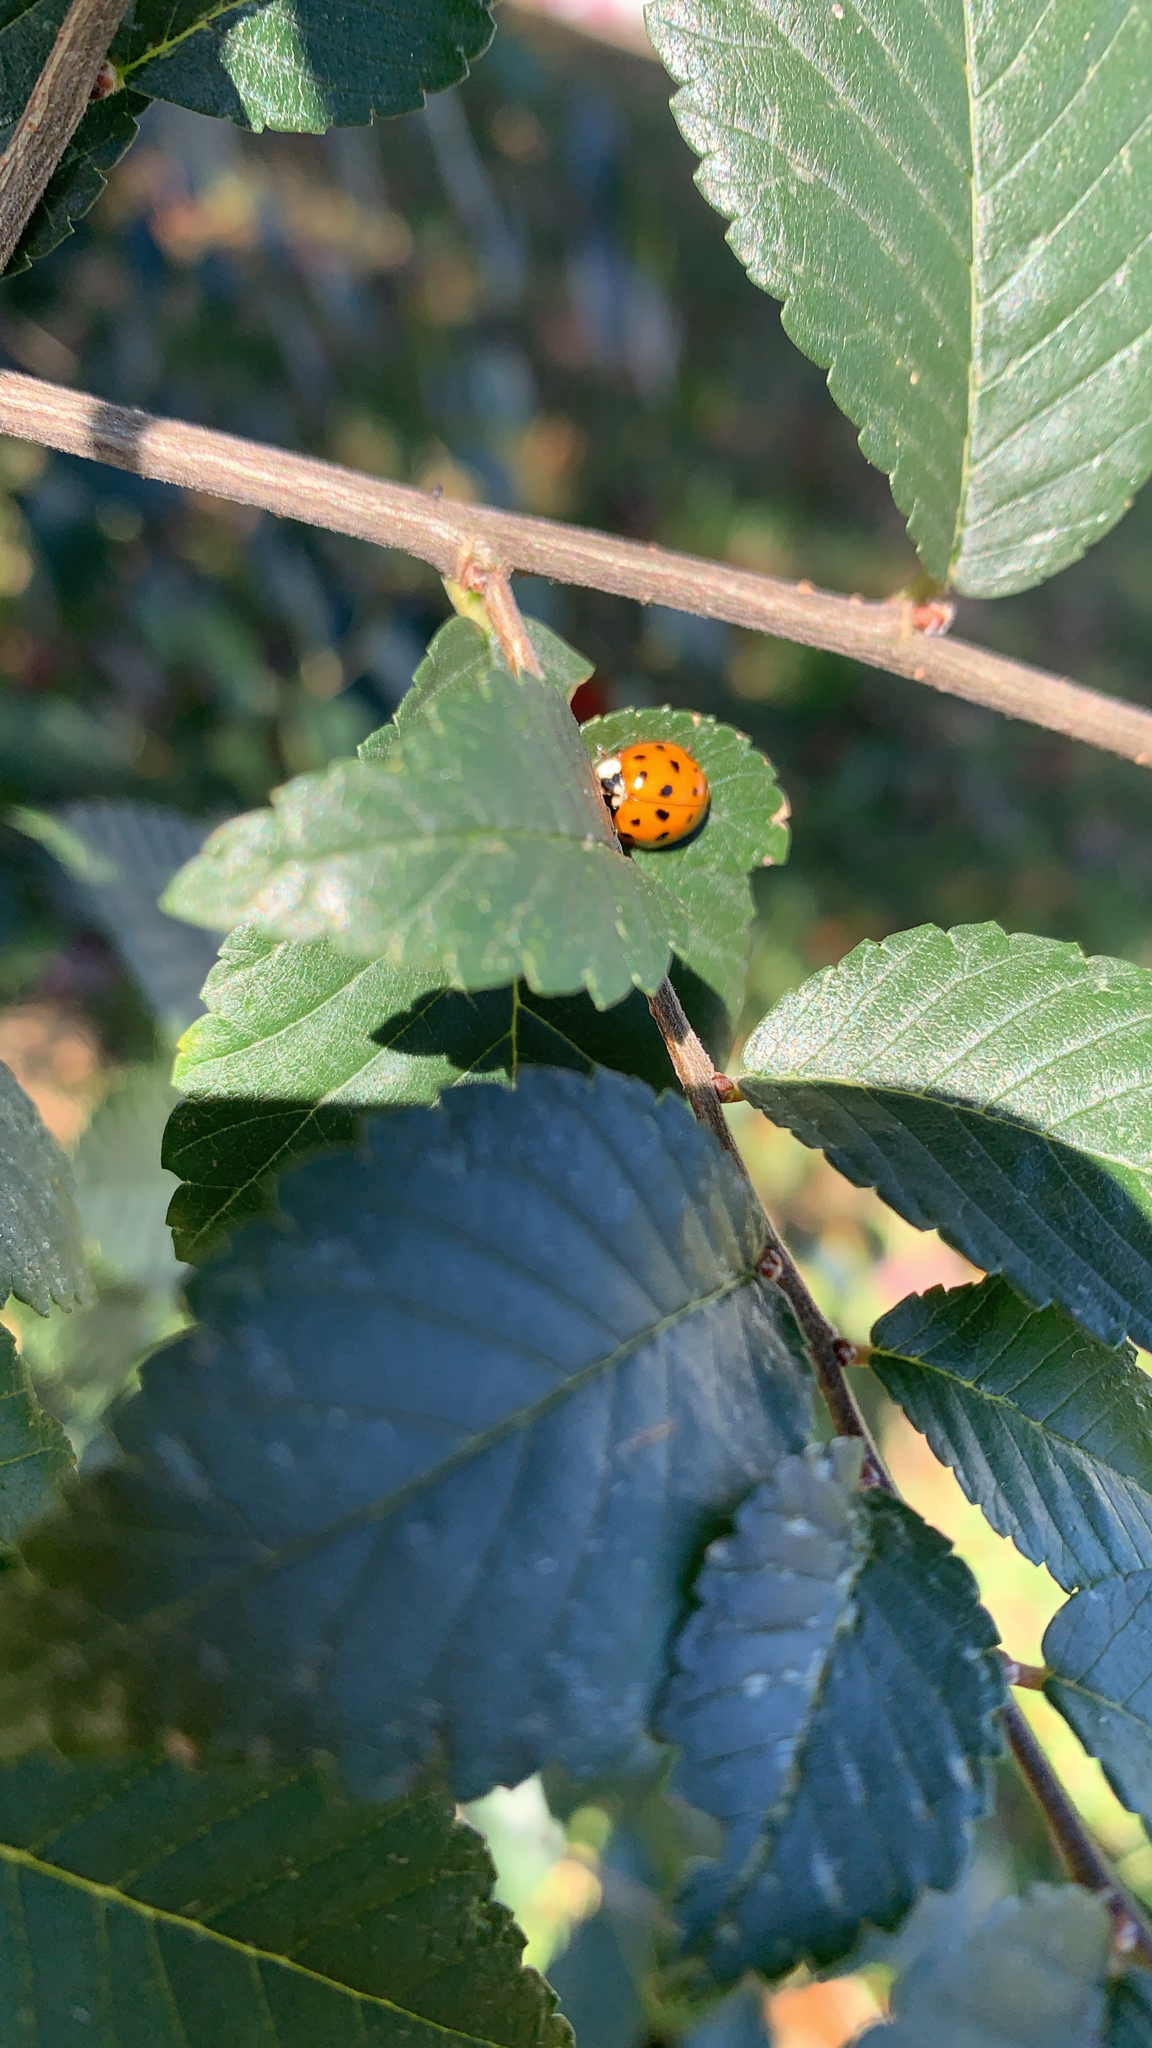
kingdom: Animalia
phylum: Arthropoda
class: Insecta
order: Coleoptera
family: Coccinellidae
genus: Harmonia
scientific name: Harmonia axyridis
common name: Harlequin ladybird
